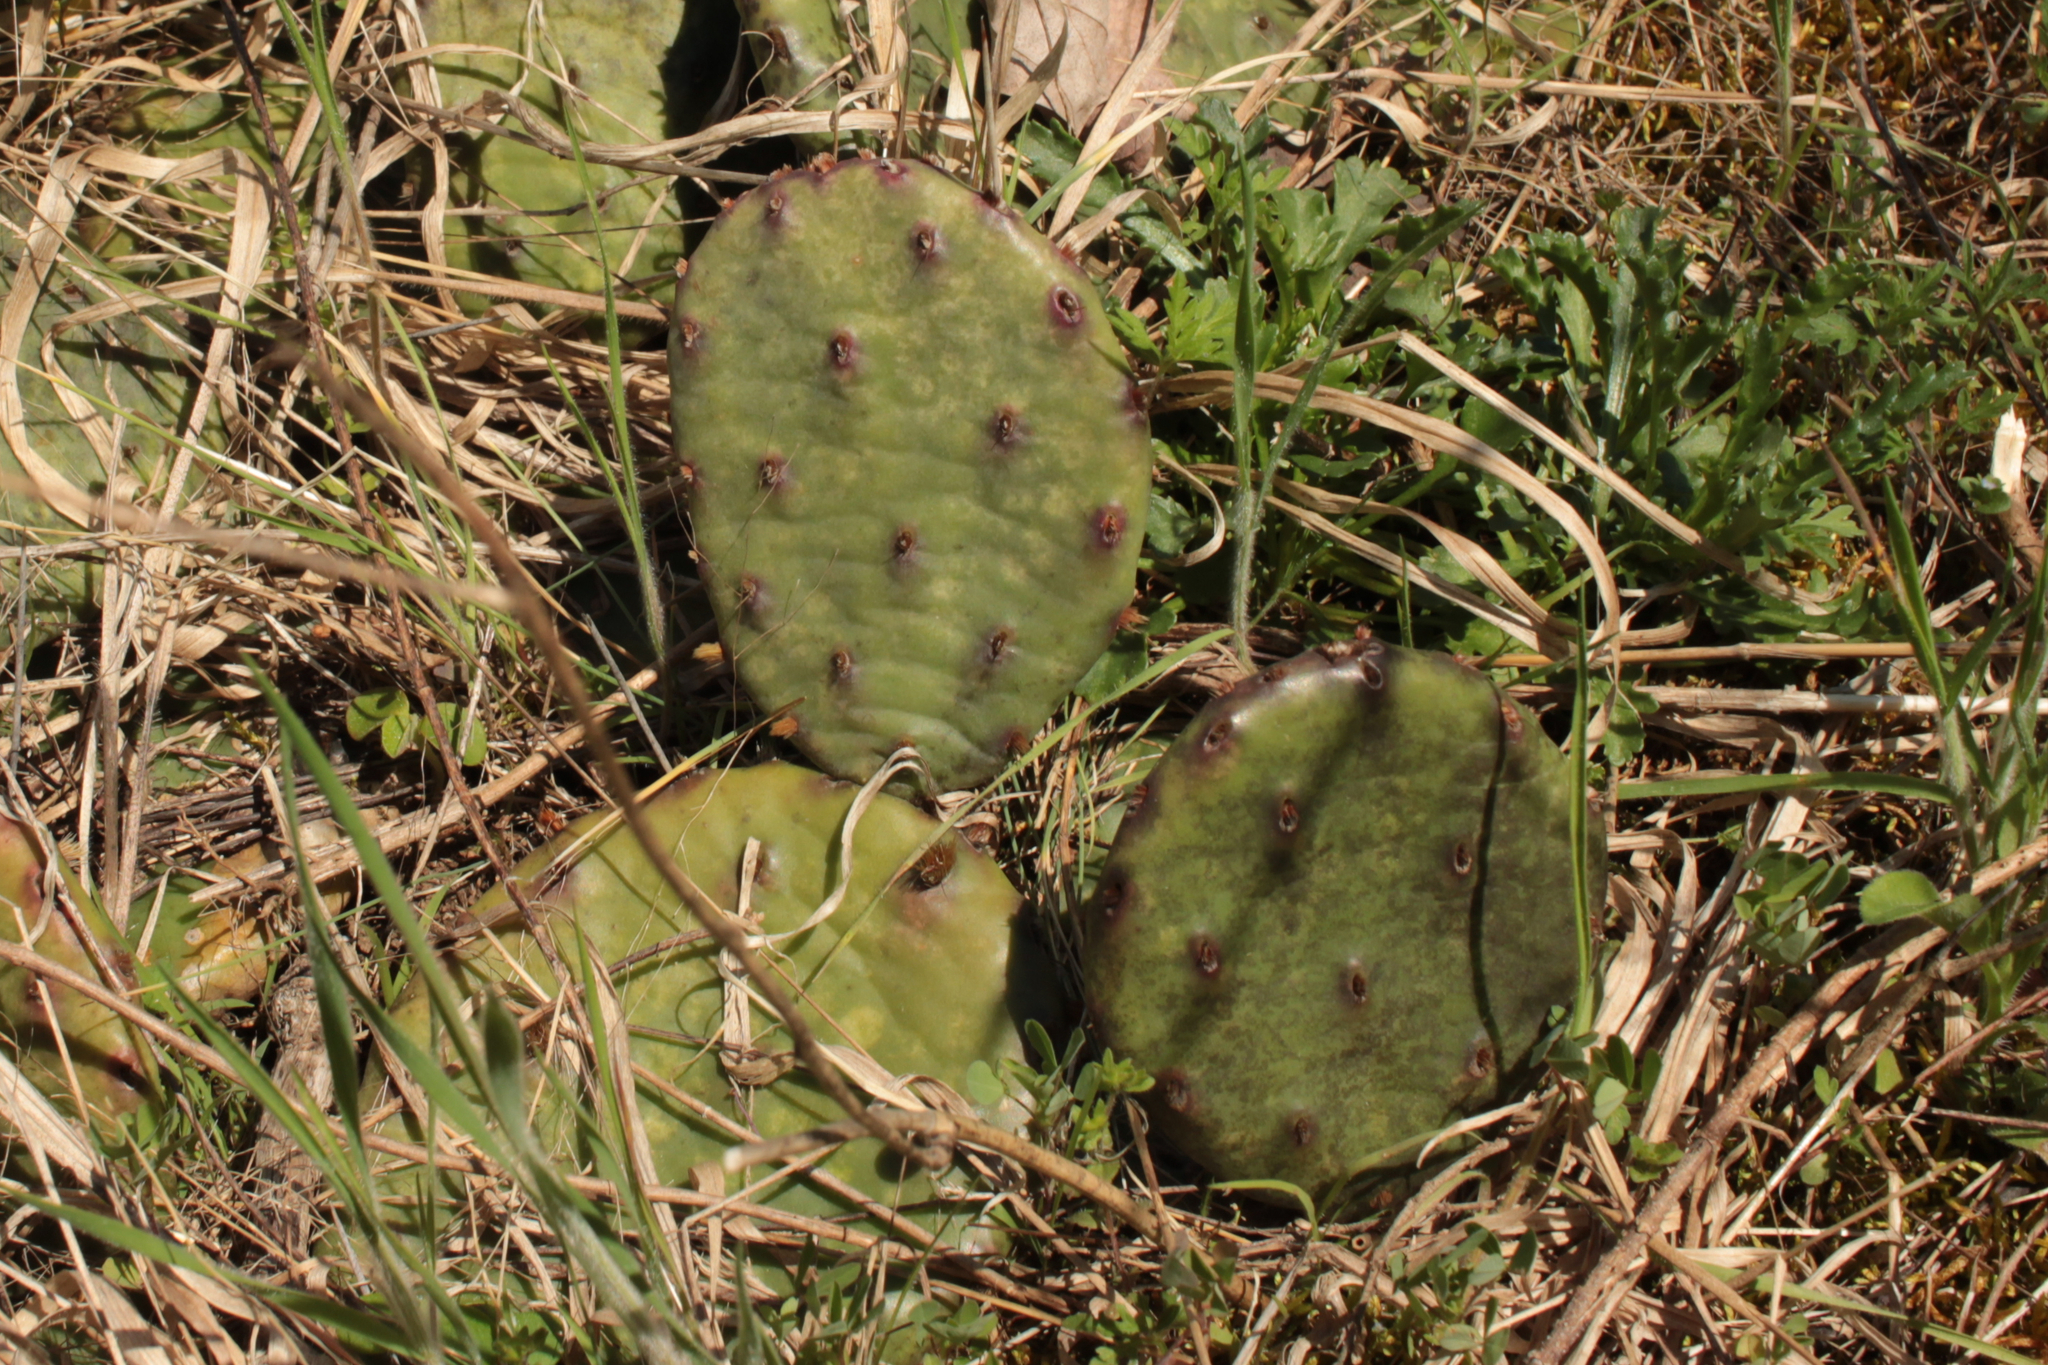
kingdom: Plantae
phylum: Tracheophyta
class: Magnoliopsida
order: Caryophyllales
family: Cactaceae
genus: Opuntia
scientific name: Opuntia humifusa
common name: Eastern prickly-pear
